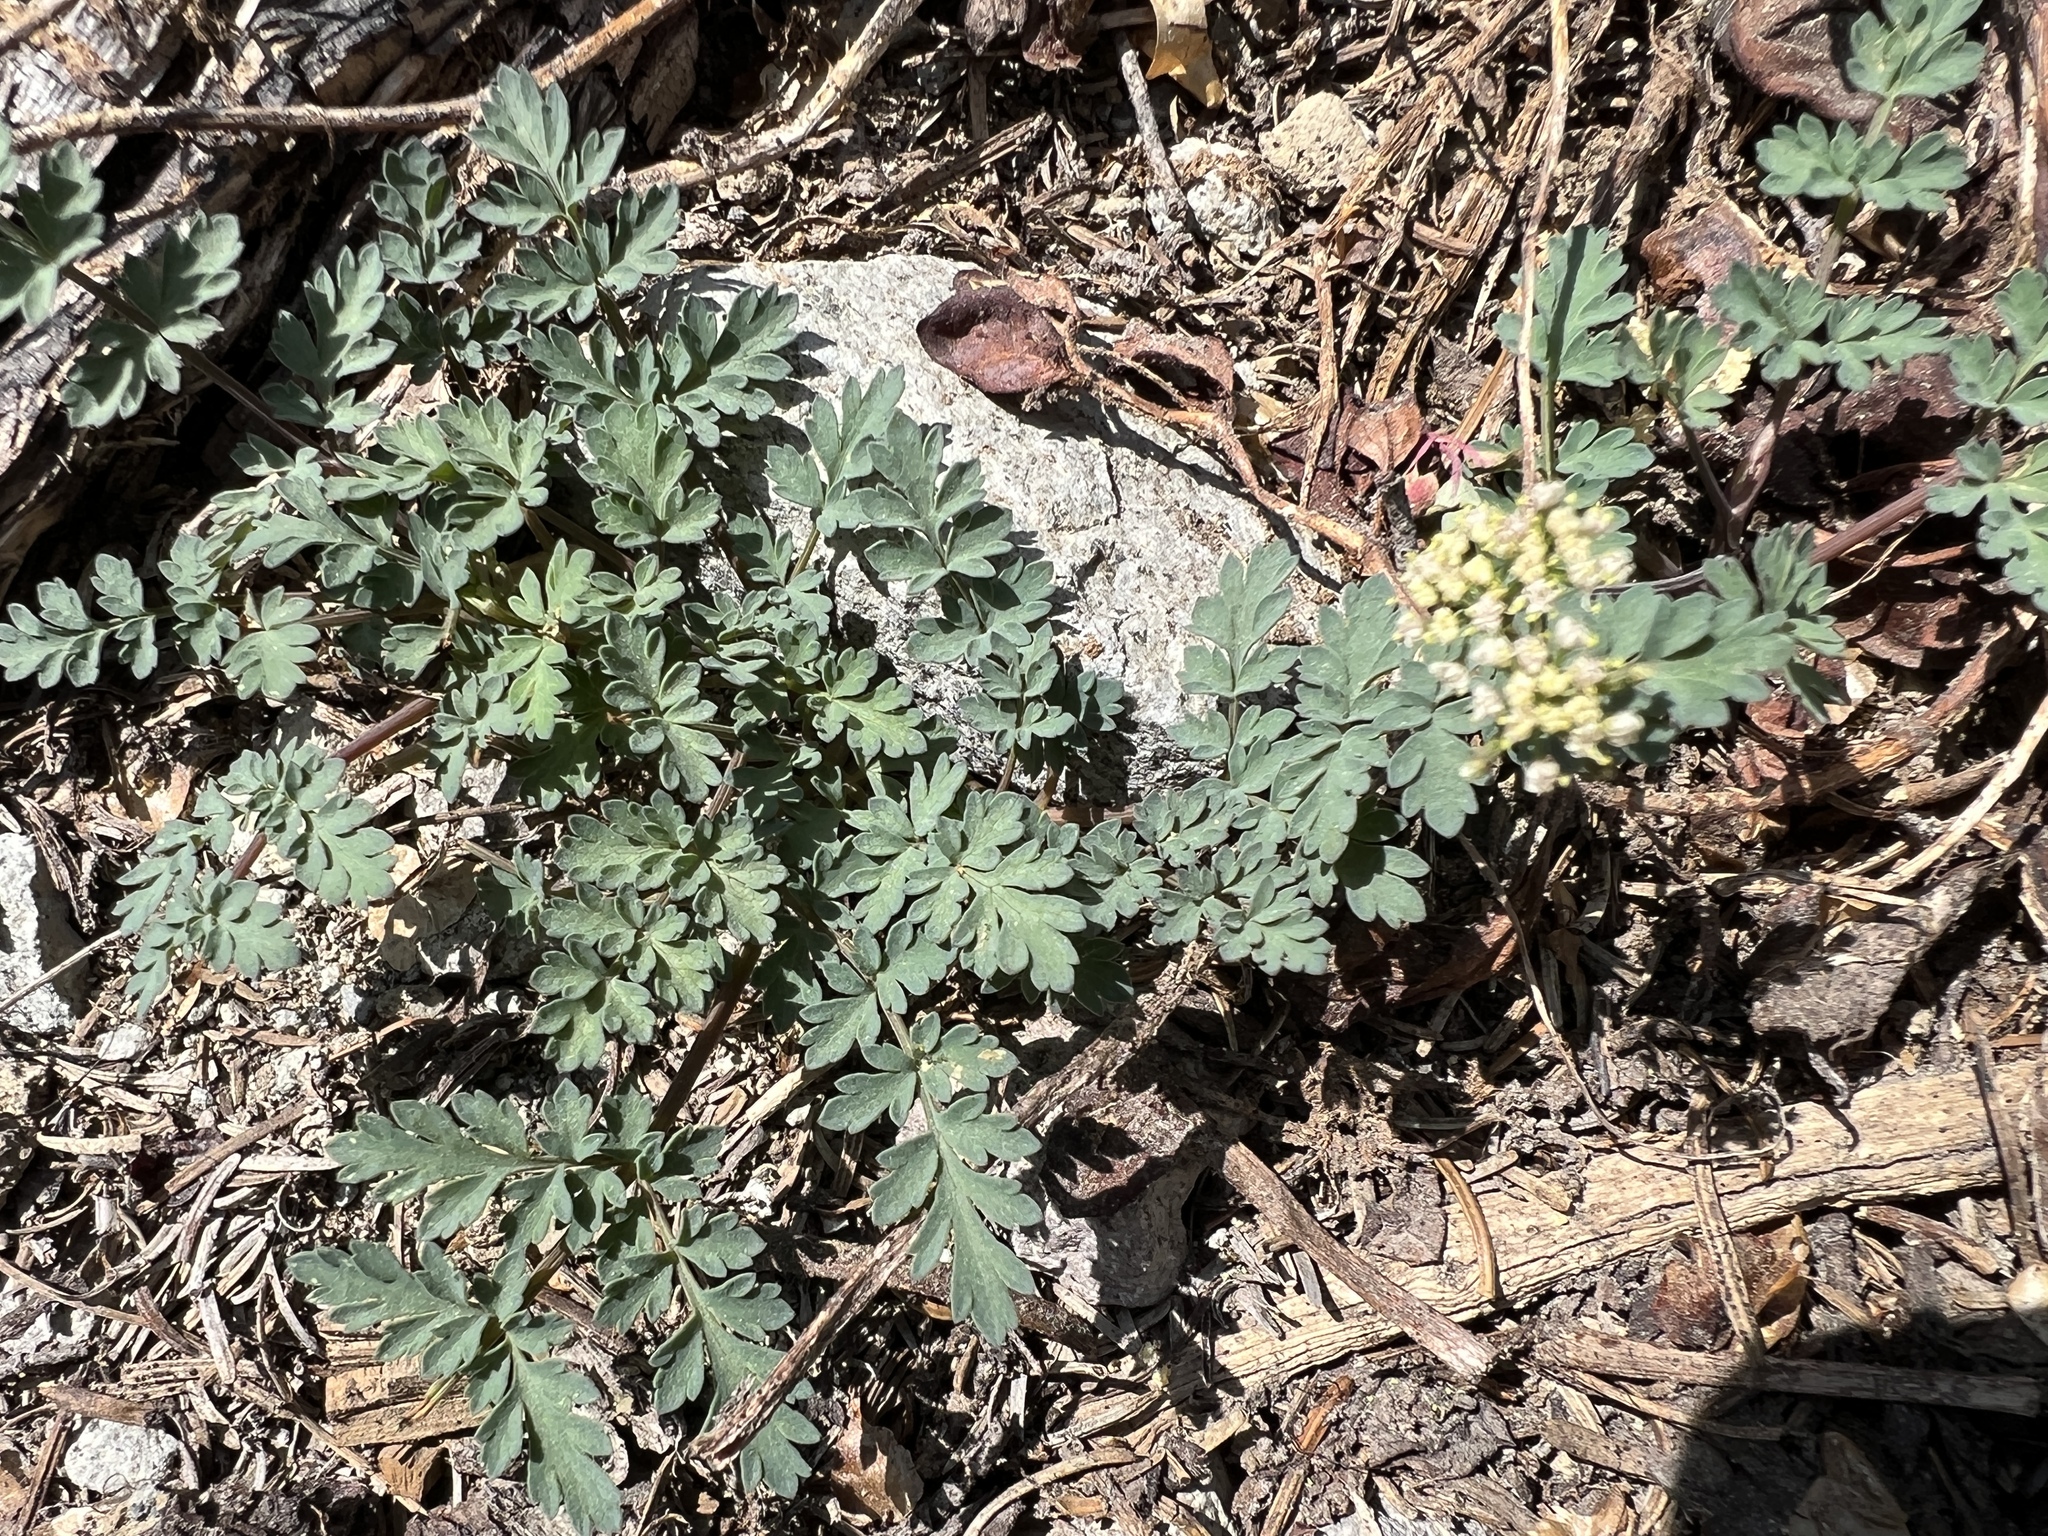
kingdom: Plantae
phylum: Tracheophyta
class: Magnoliopsida
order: Apiales
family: Apiaceae
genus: Lomatium
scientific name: Lomatium martindalei
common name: Cascade desert-parsley
